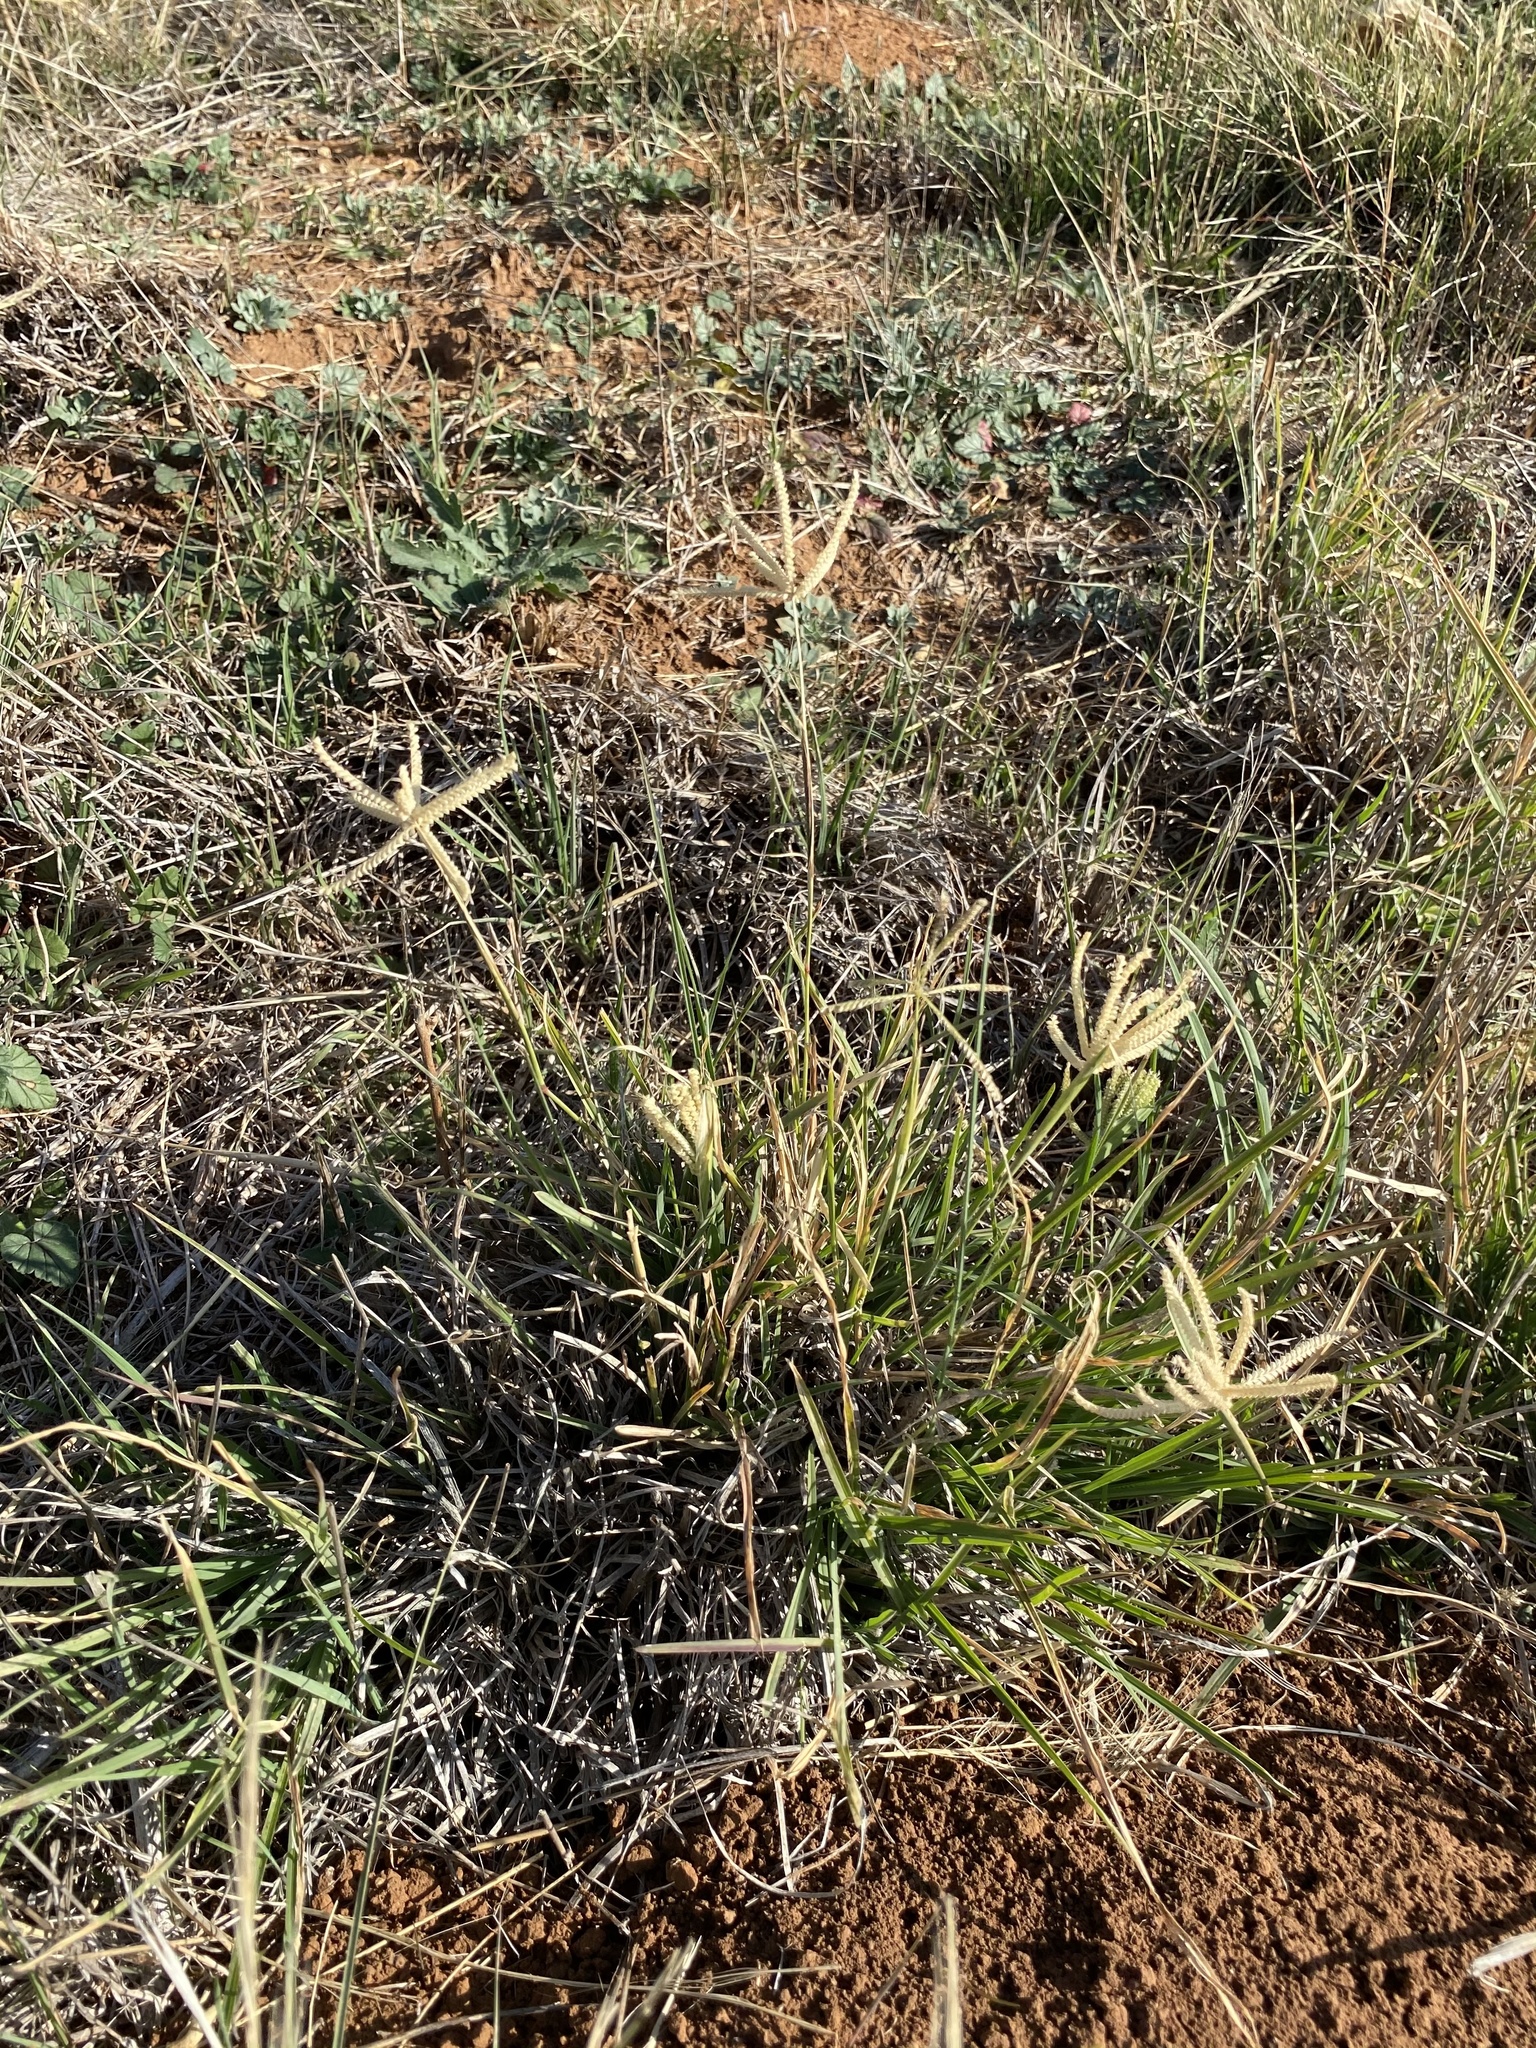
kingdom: Plantae
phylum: Tracheophyta
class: Liliopsida
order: Poales
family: Poaceae
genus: Chloris
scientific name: Chloris cucullata
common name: Hooded windmill grass
